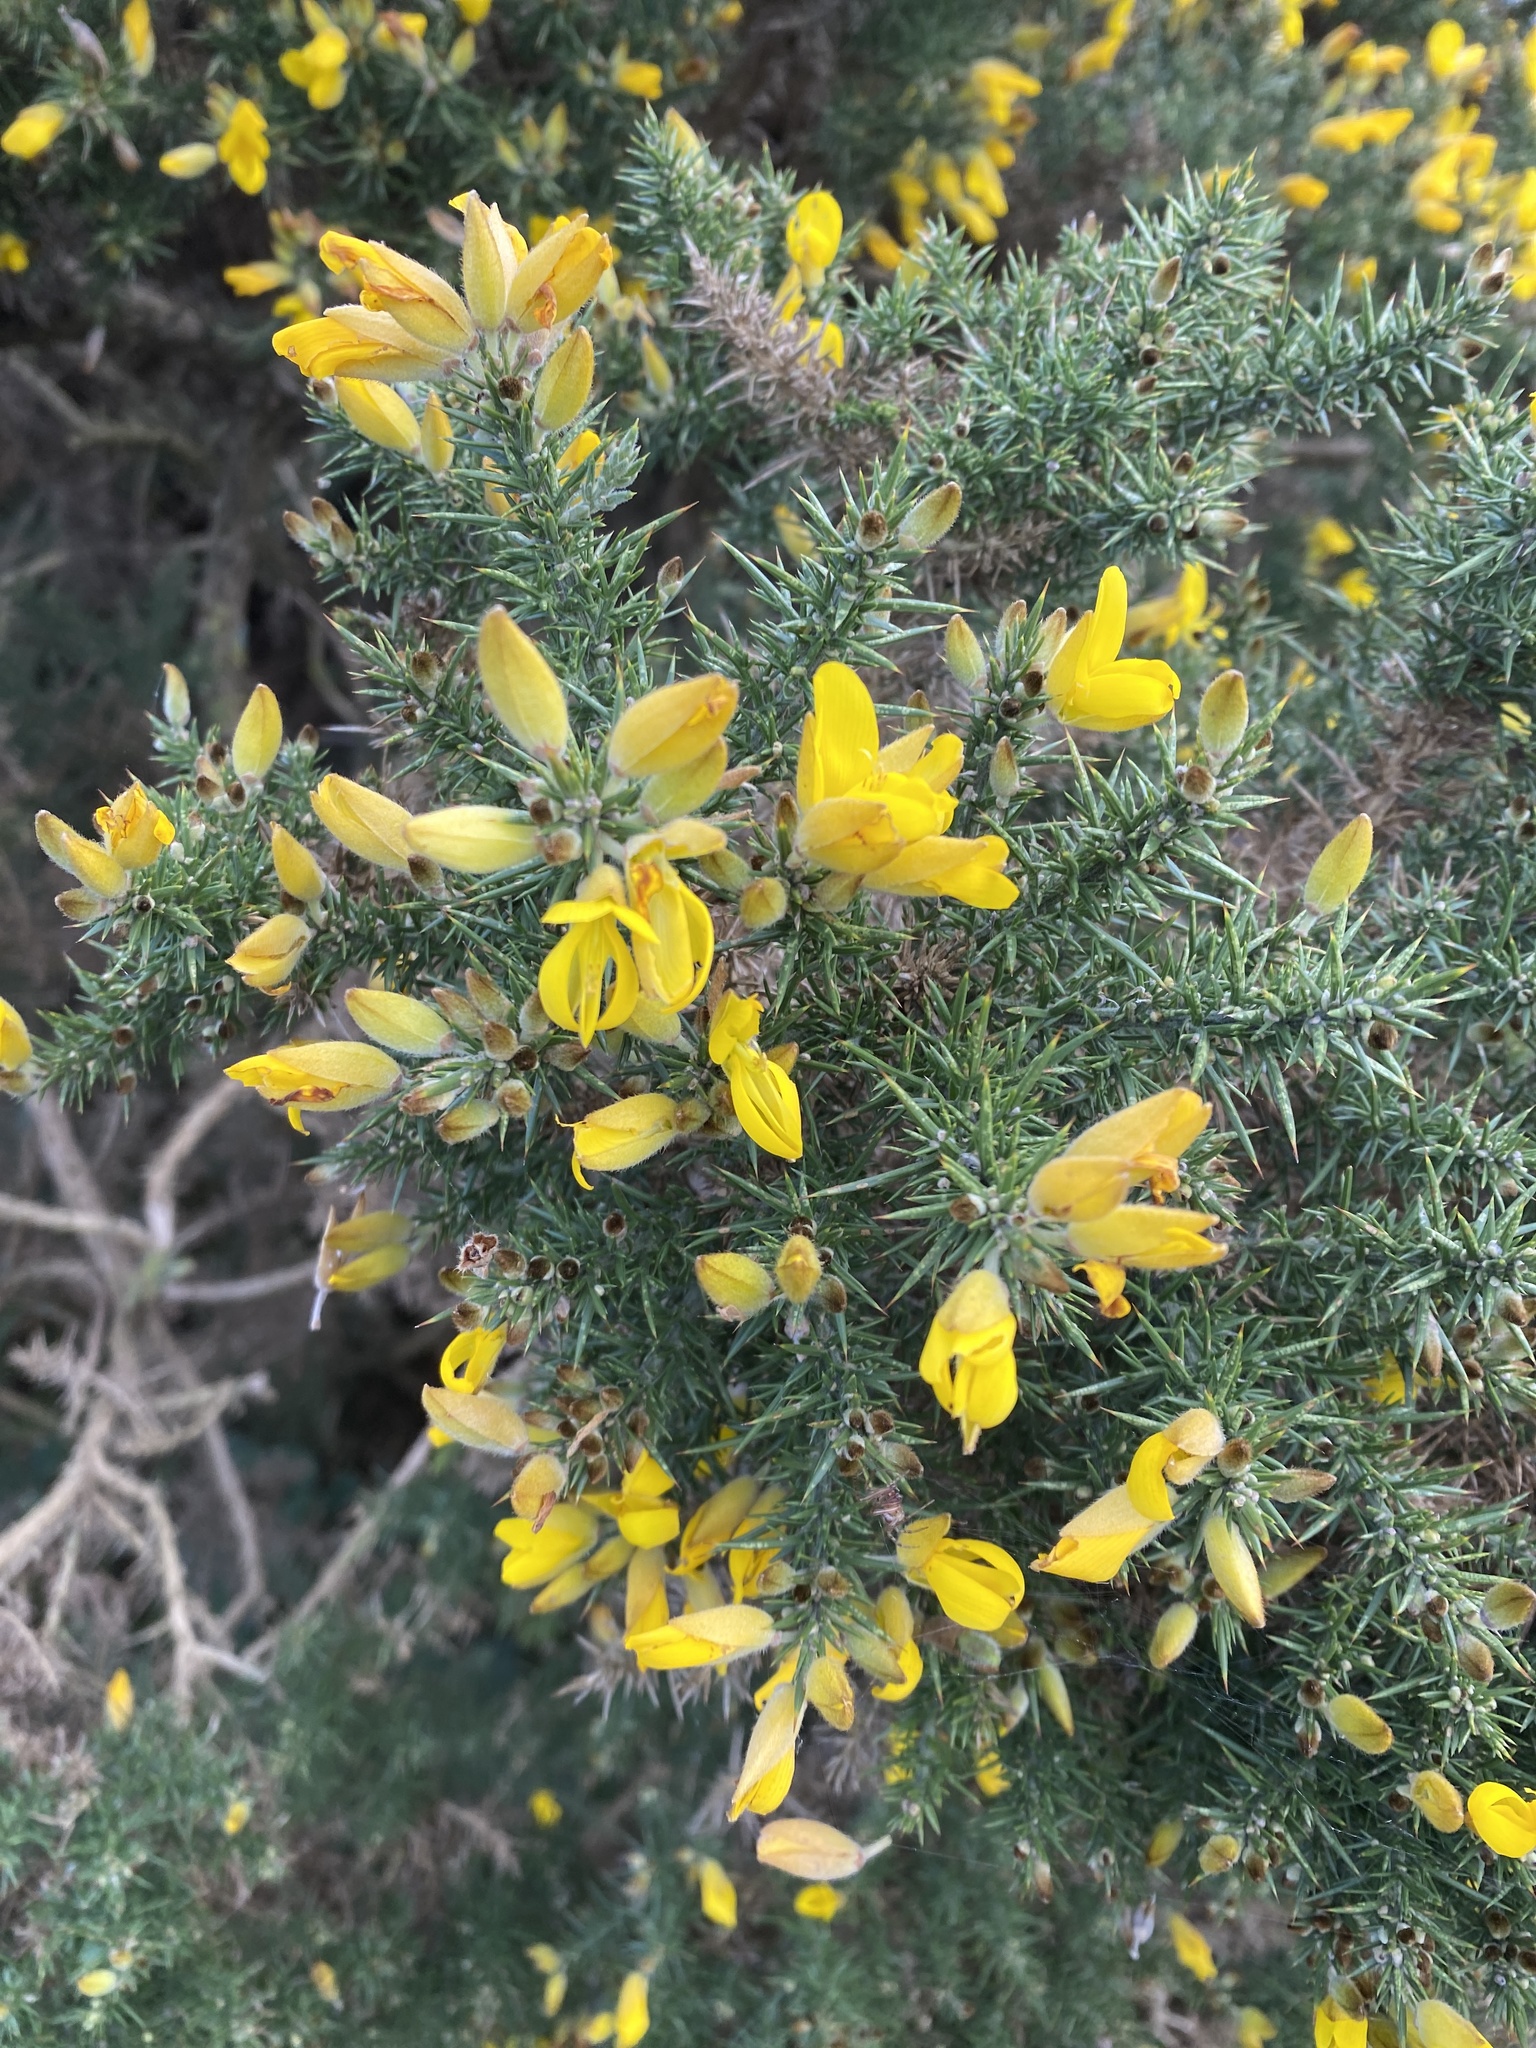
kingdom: Plantae
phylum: Tracheophyta
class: Magnoliopsida
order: Fabales
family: Fabaceae
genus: Ulex
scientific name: Ulex europaeus
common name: Common gorse
